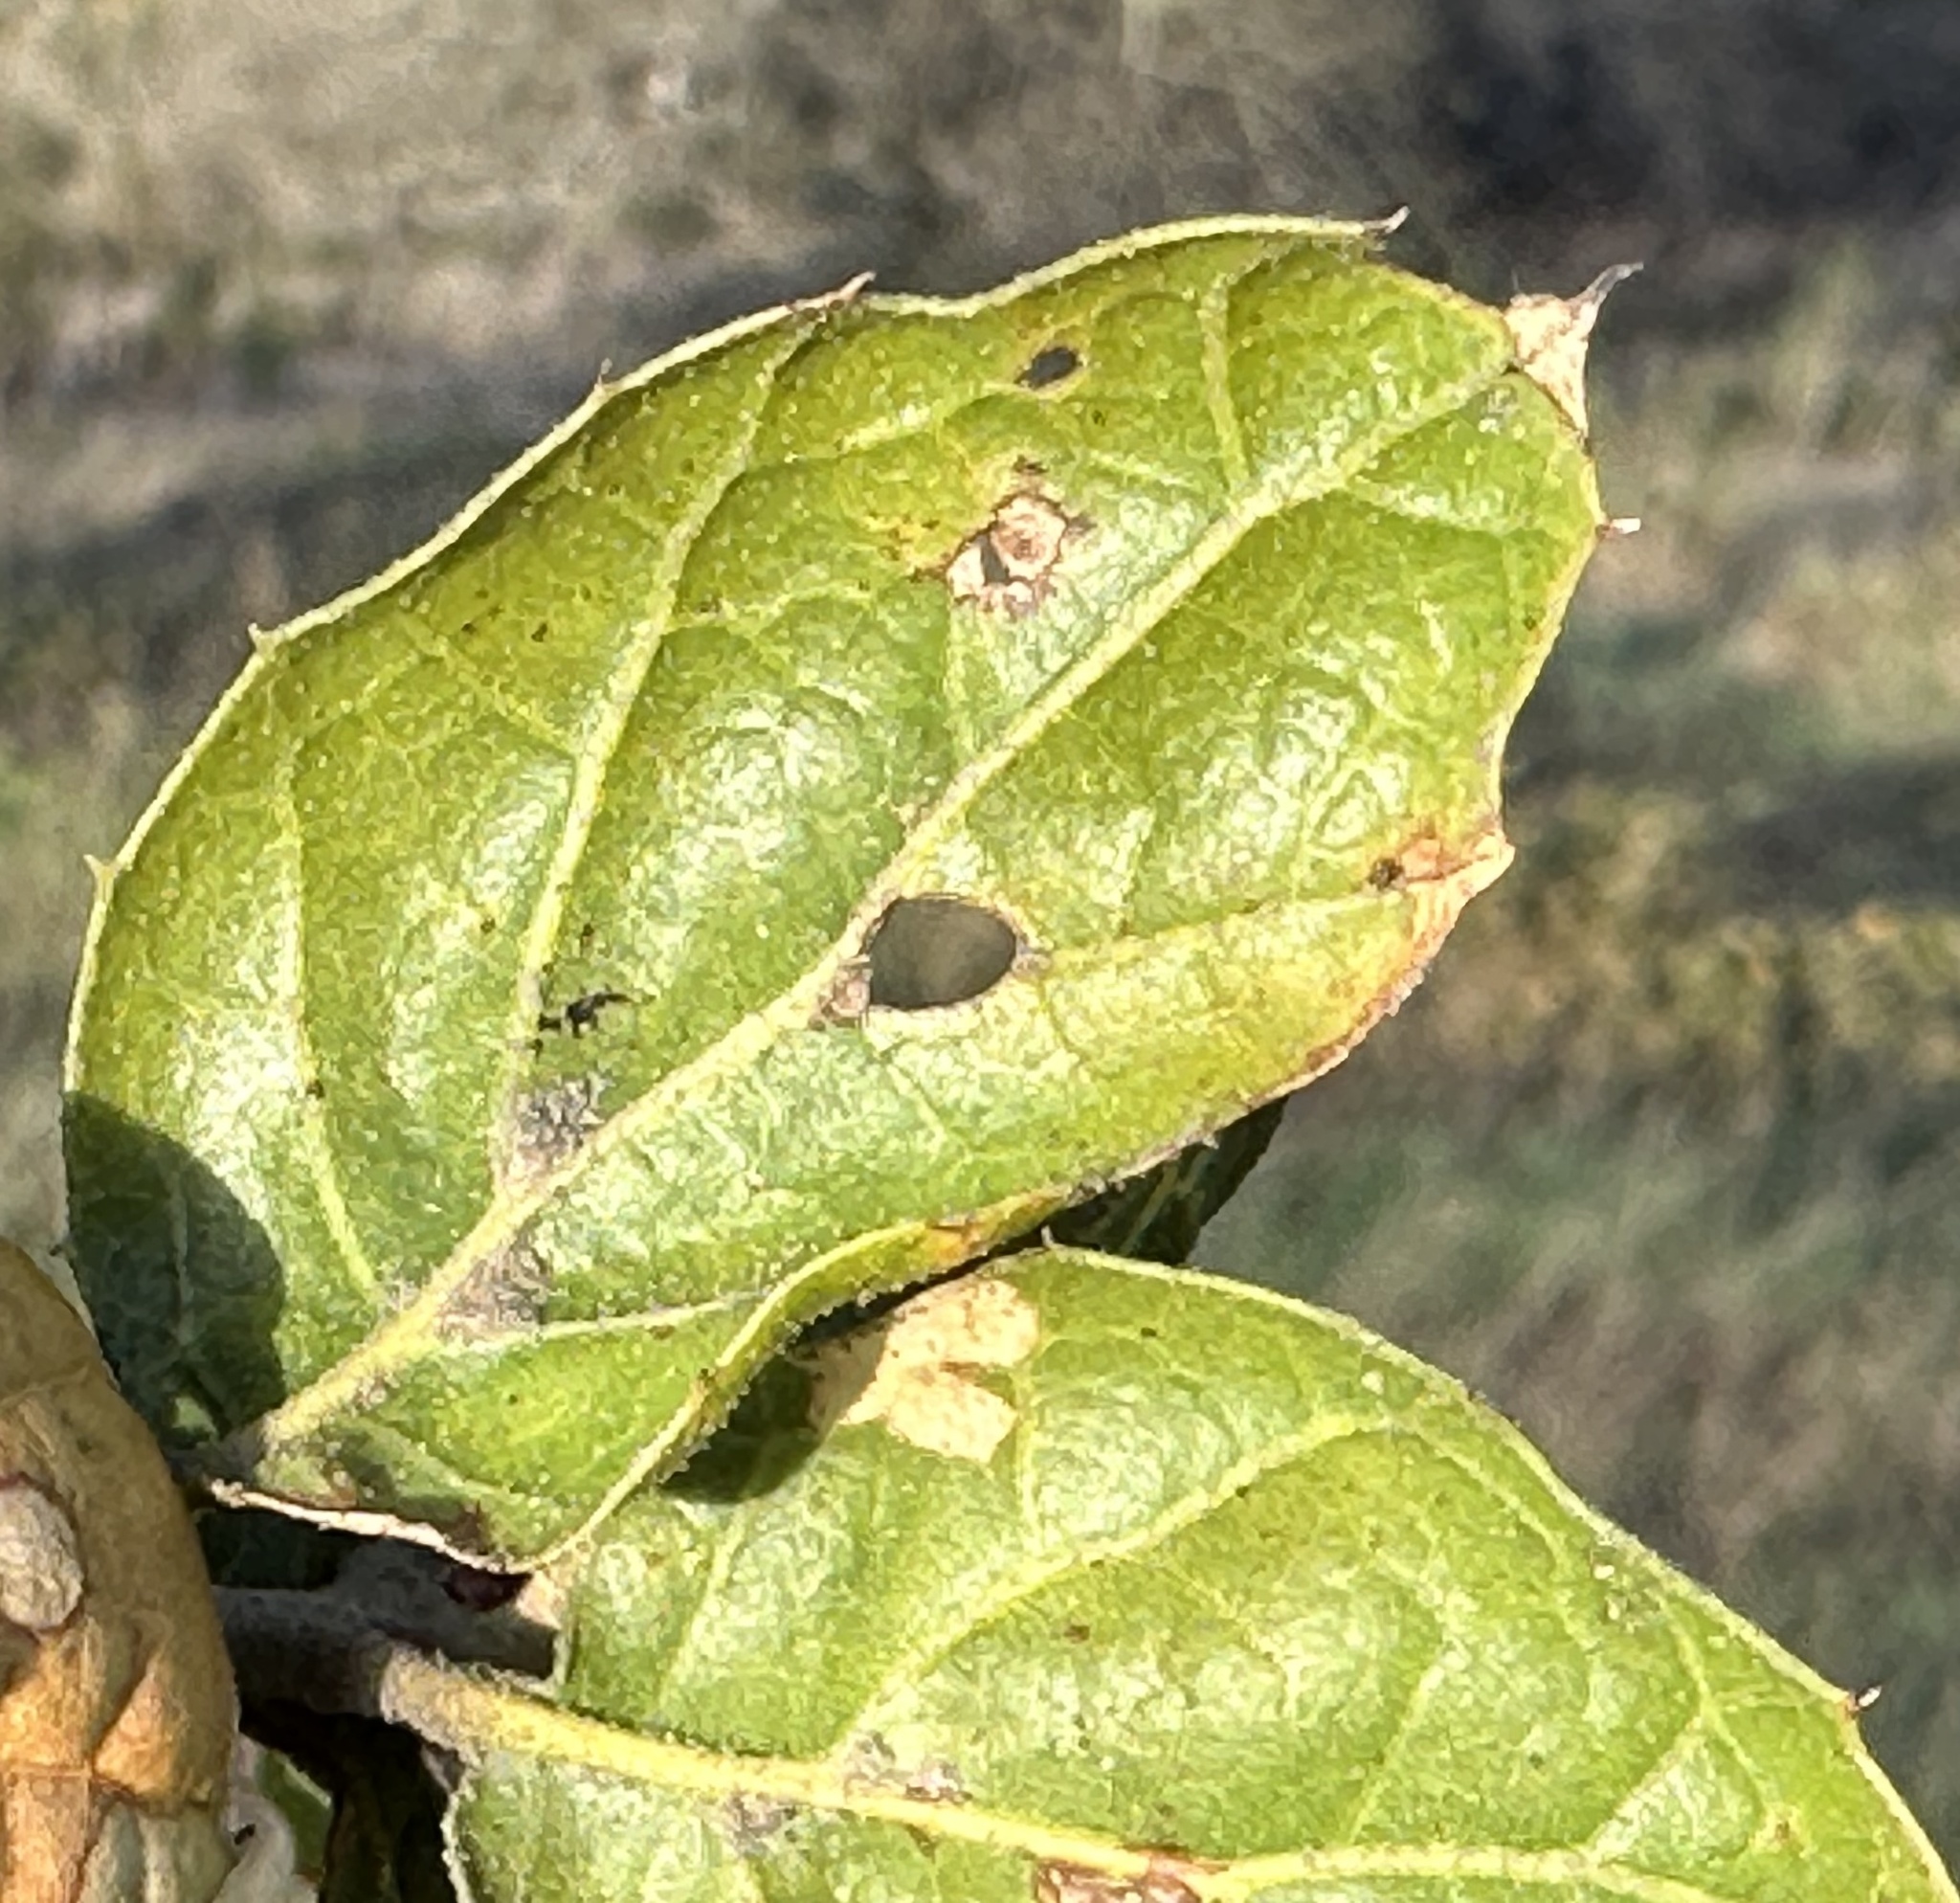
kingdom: Plantae
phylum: Tracheophyta
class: Magnoliopsida
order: Fagales
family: Fagaceae
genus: Quercus
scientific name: Quercus agrifolia
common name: California live oak
